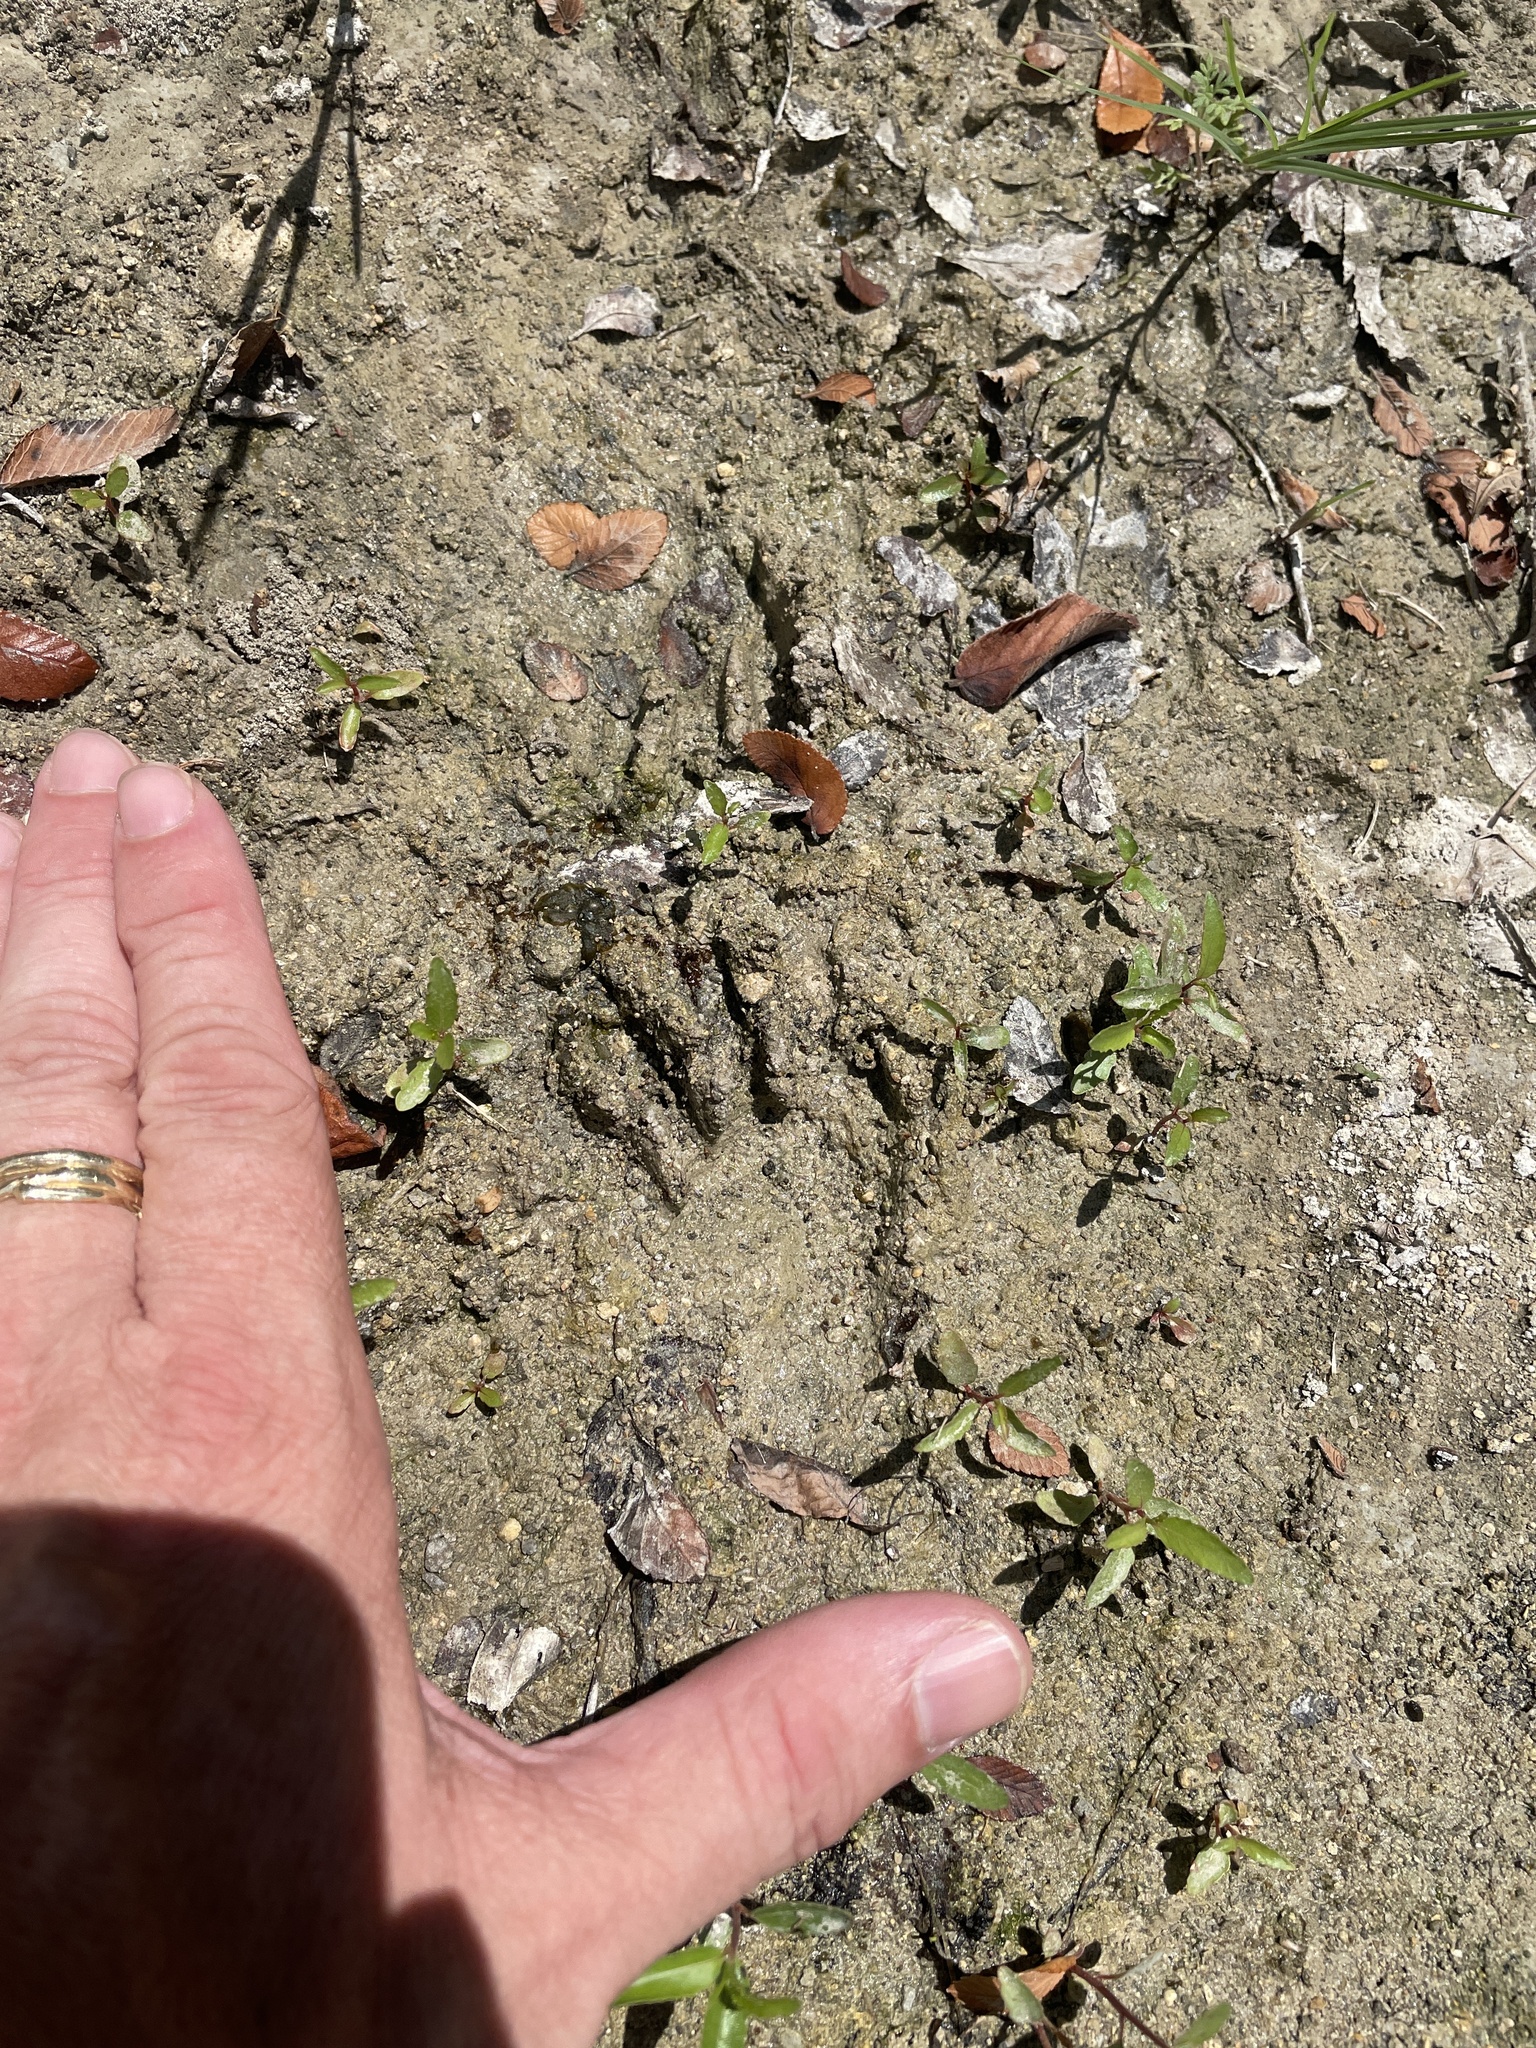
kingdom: Animalia
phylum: Chordata
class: Mammalia
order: Carnivora
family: Procyonidae
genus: Procyon
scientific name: Procyon lotor
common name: Raccoon
